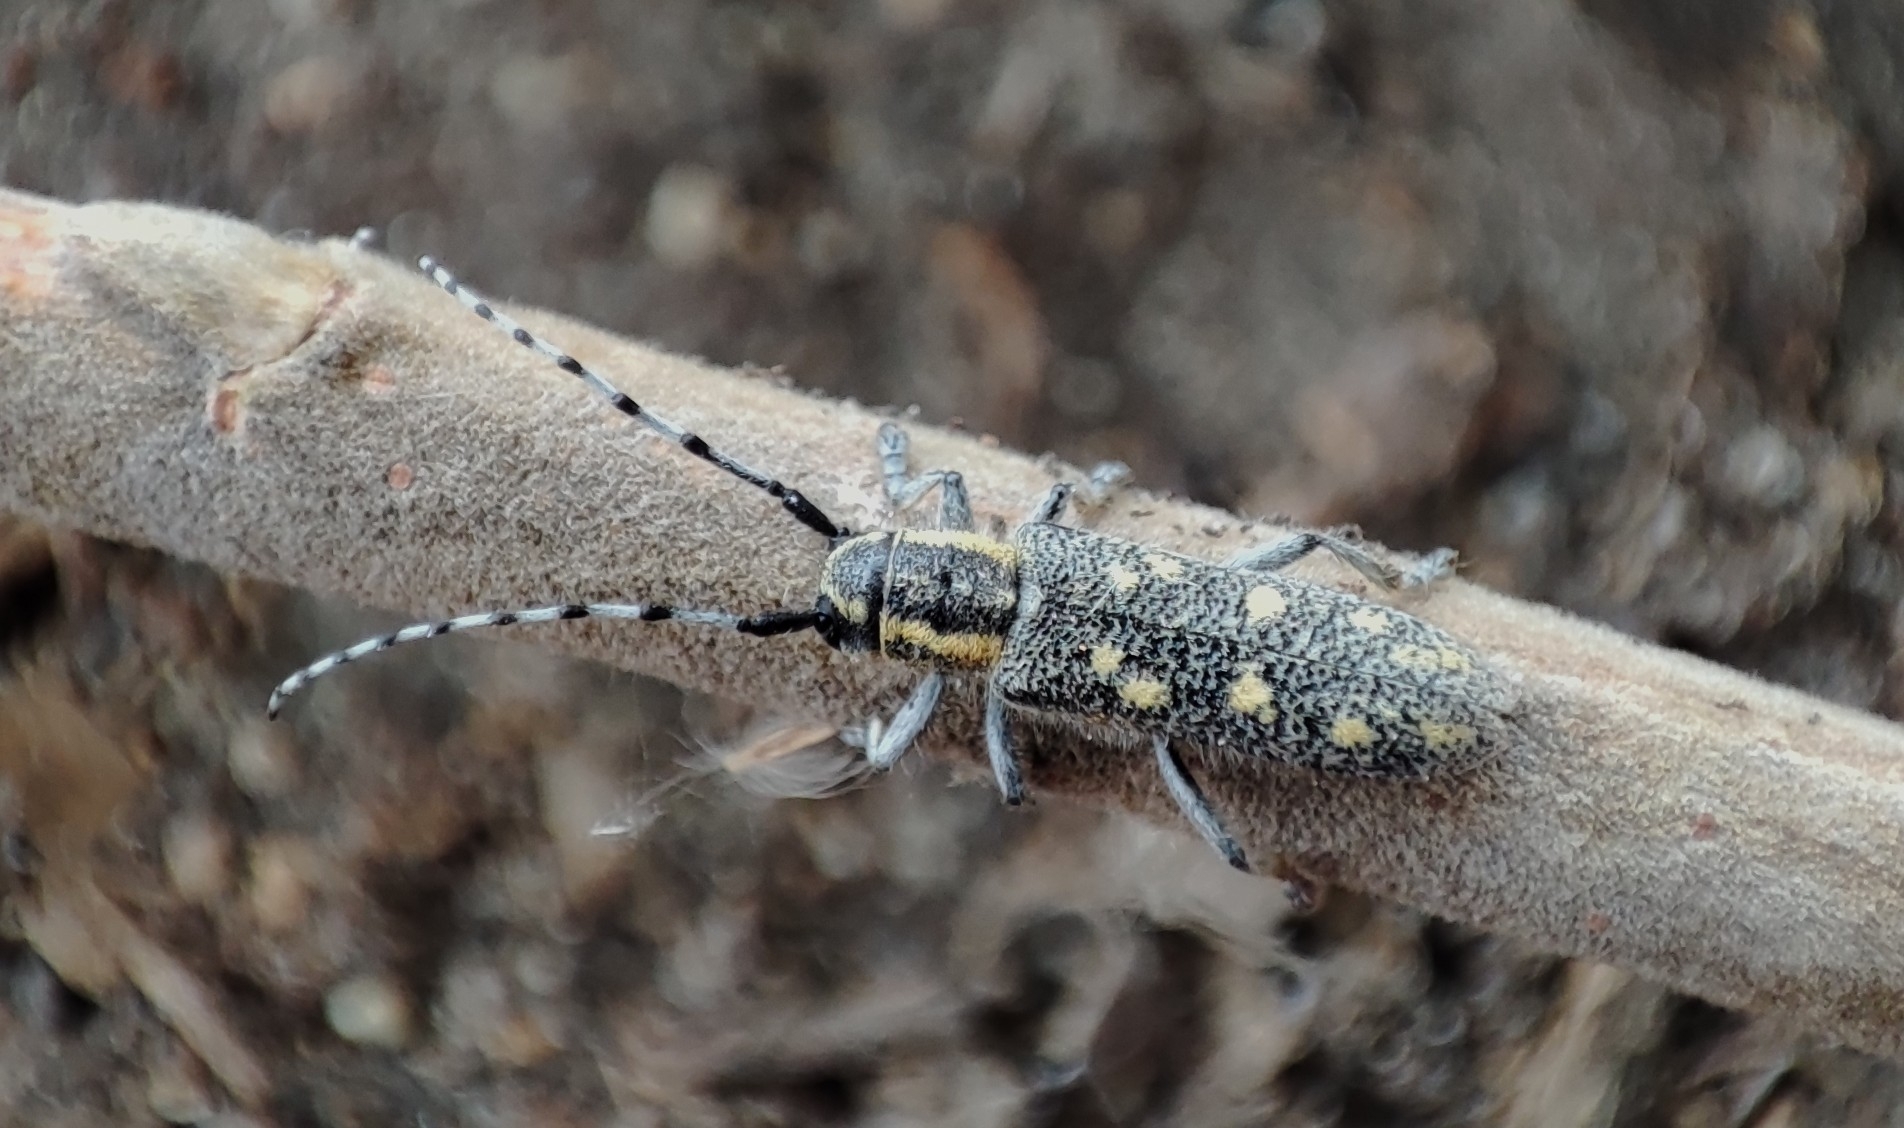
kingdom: Animalia
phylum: Arthropoda
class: Insecta
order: Coleoptera
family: Cerambycidae
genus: Saperda
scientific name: Saperda populnea
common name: Small poplar borer
